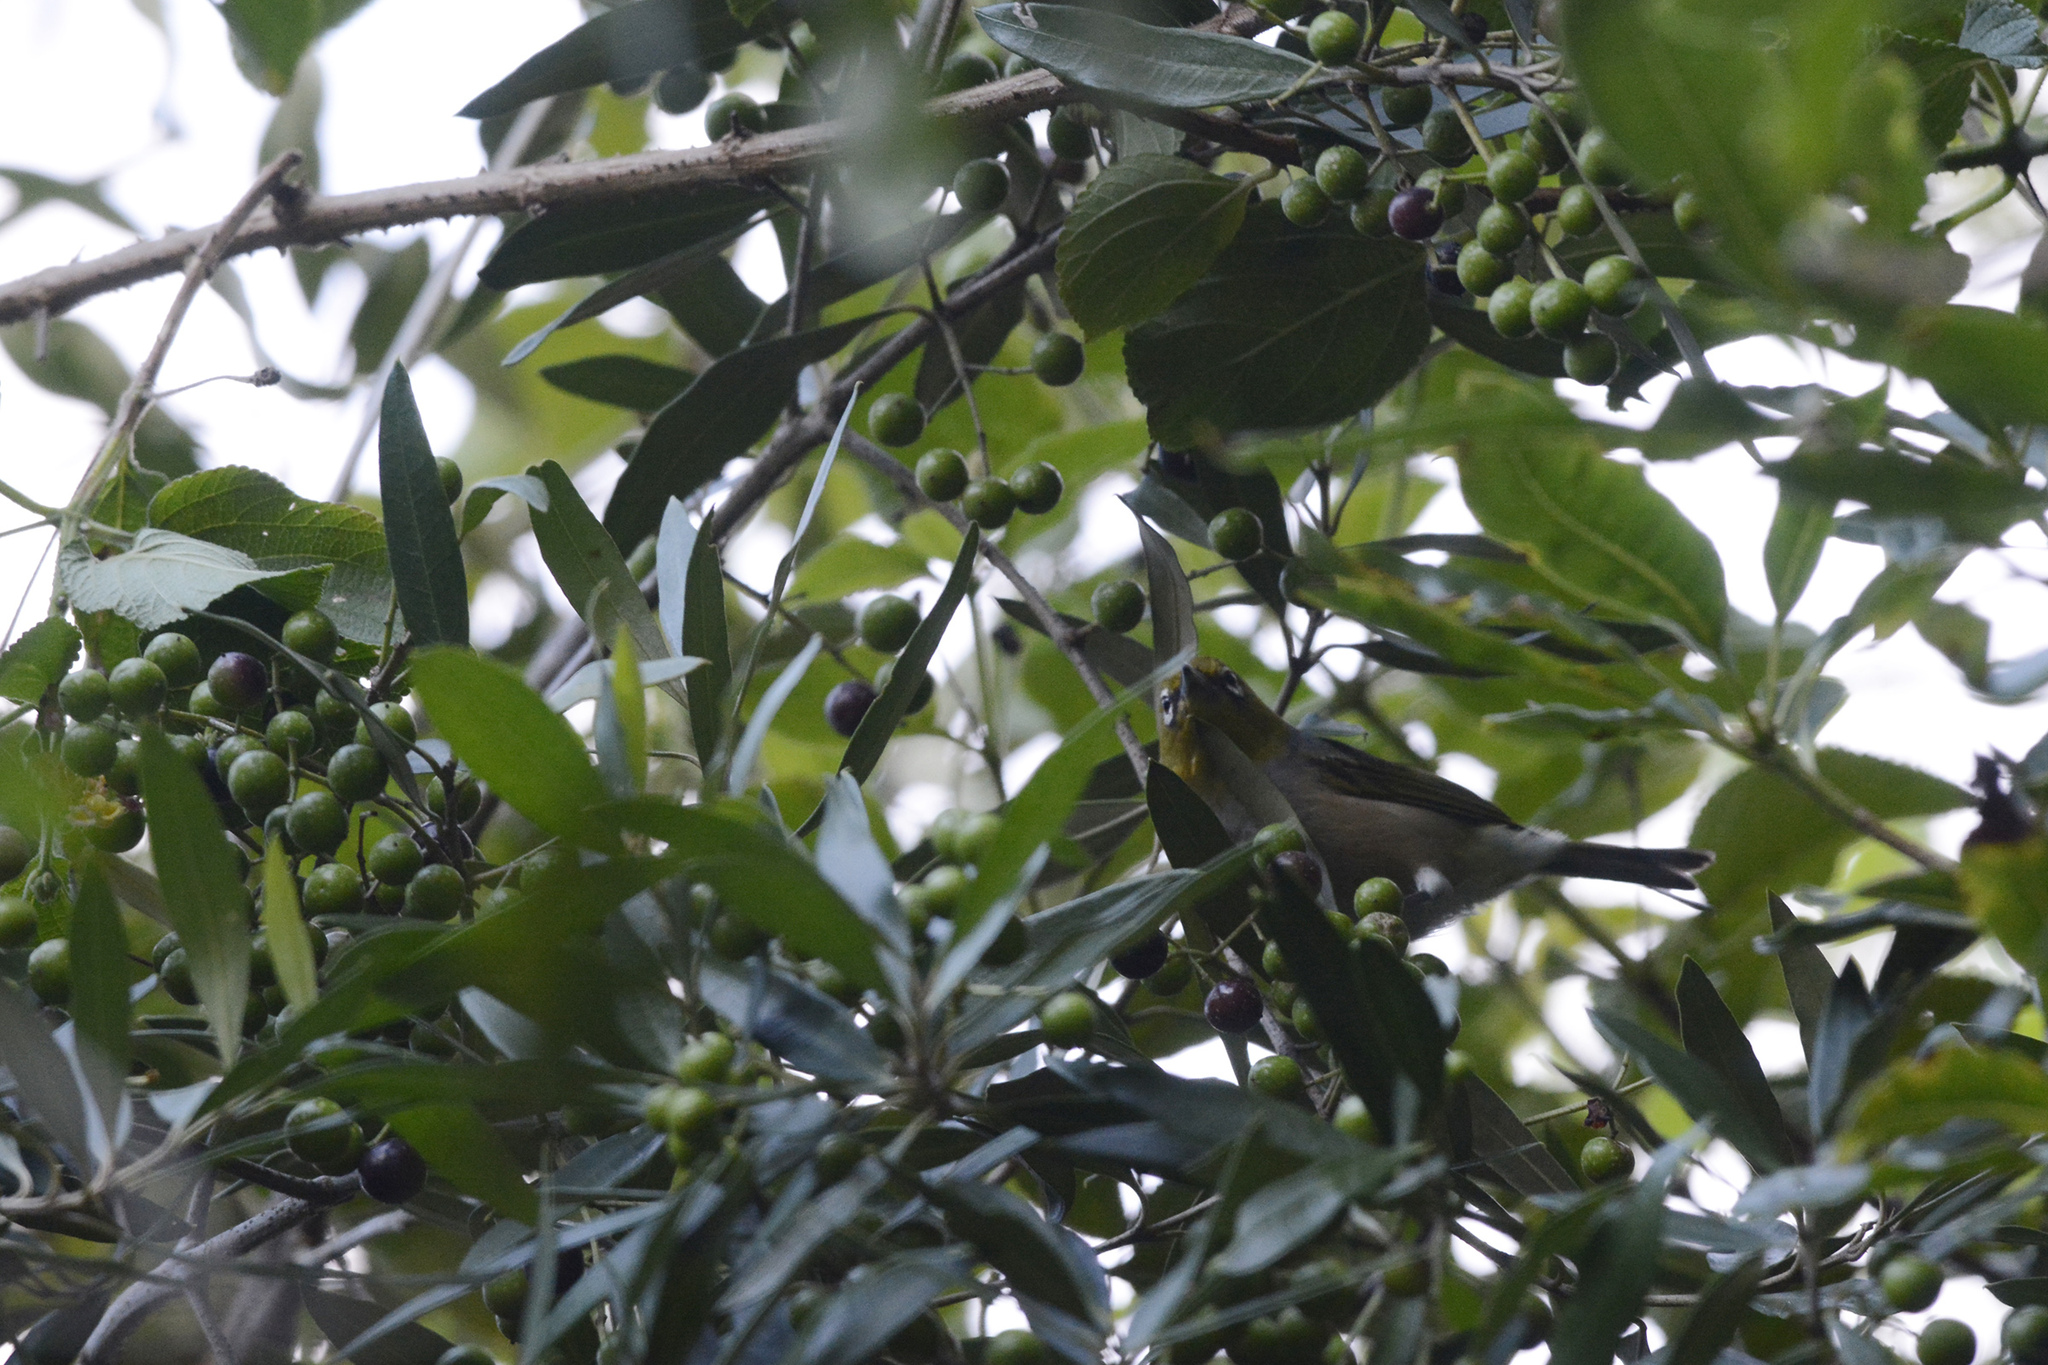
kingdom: Animalia
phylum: Chordata
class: Aves
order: Passeriformes
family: Zosteropidae
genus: Zosterops
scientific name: Zosterops lateralis
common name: Silvereye
